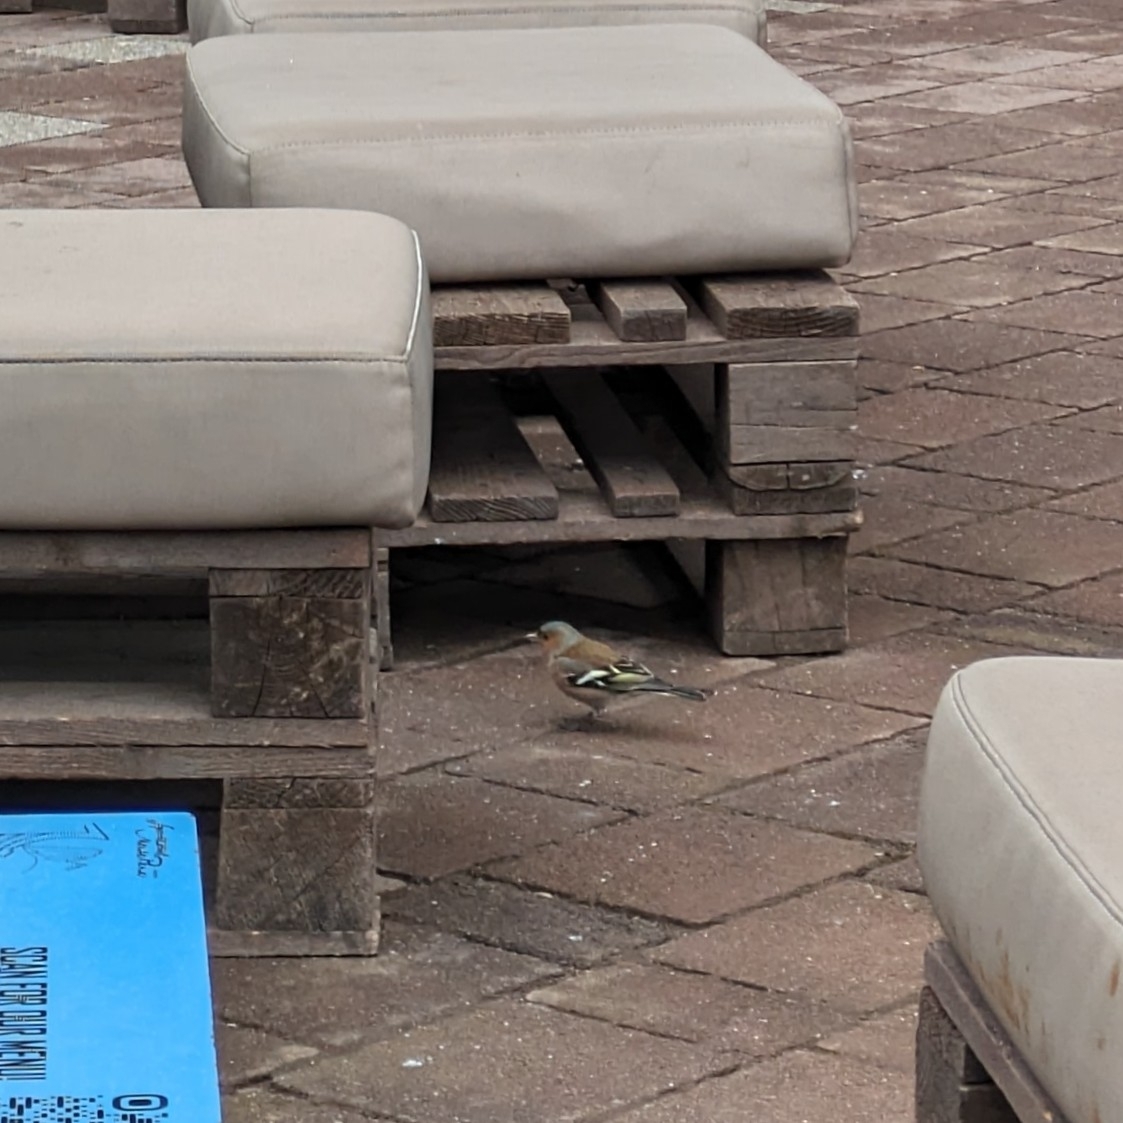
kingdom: Animalia
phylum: Chordata
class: Aves
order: Passeriformes
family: Fringillidae
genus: Fringilla
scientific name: Fringilla coelebs
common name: Common chaffinch
